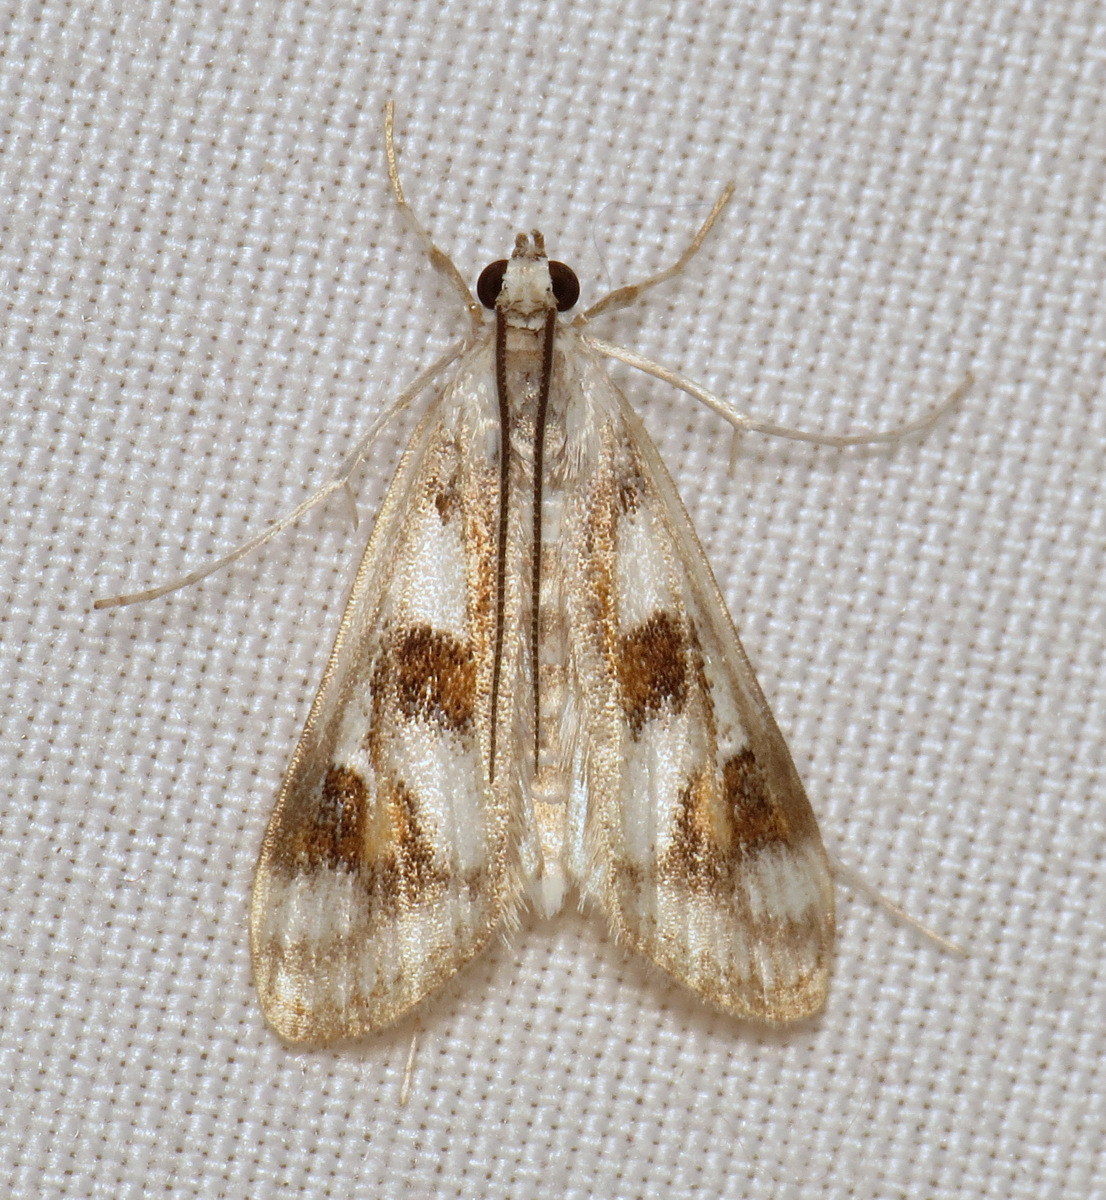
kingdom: Animalia
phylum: Arthropoda
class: Insecta
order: Lepidoptera
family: Crambidae
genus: Parapoynx
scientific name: Parapoynx maculalis
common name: Polymorphic pondweed moth
